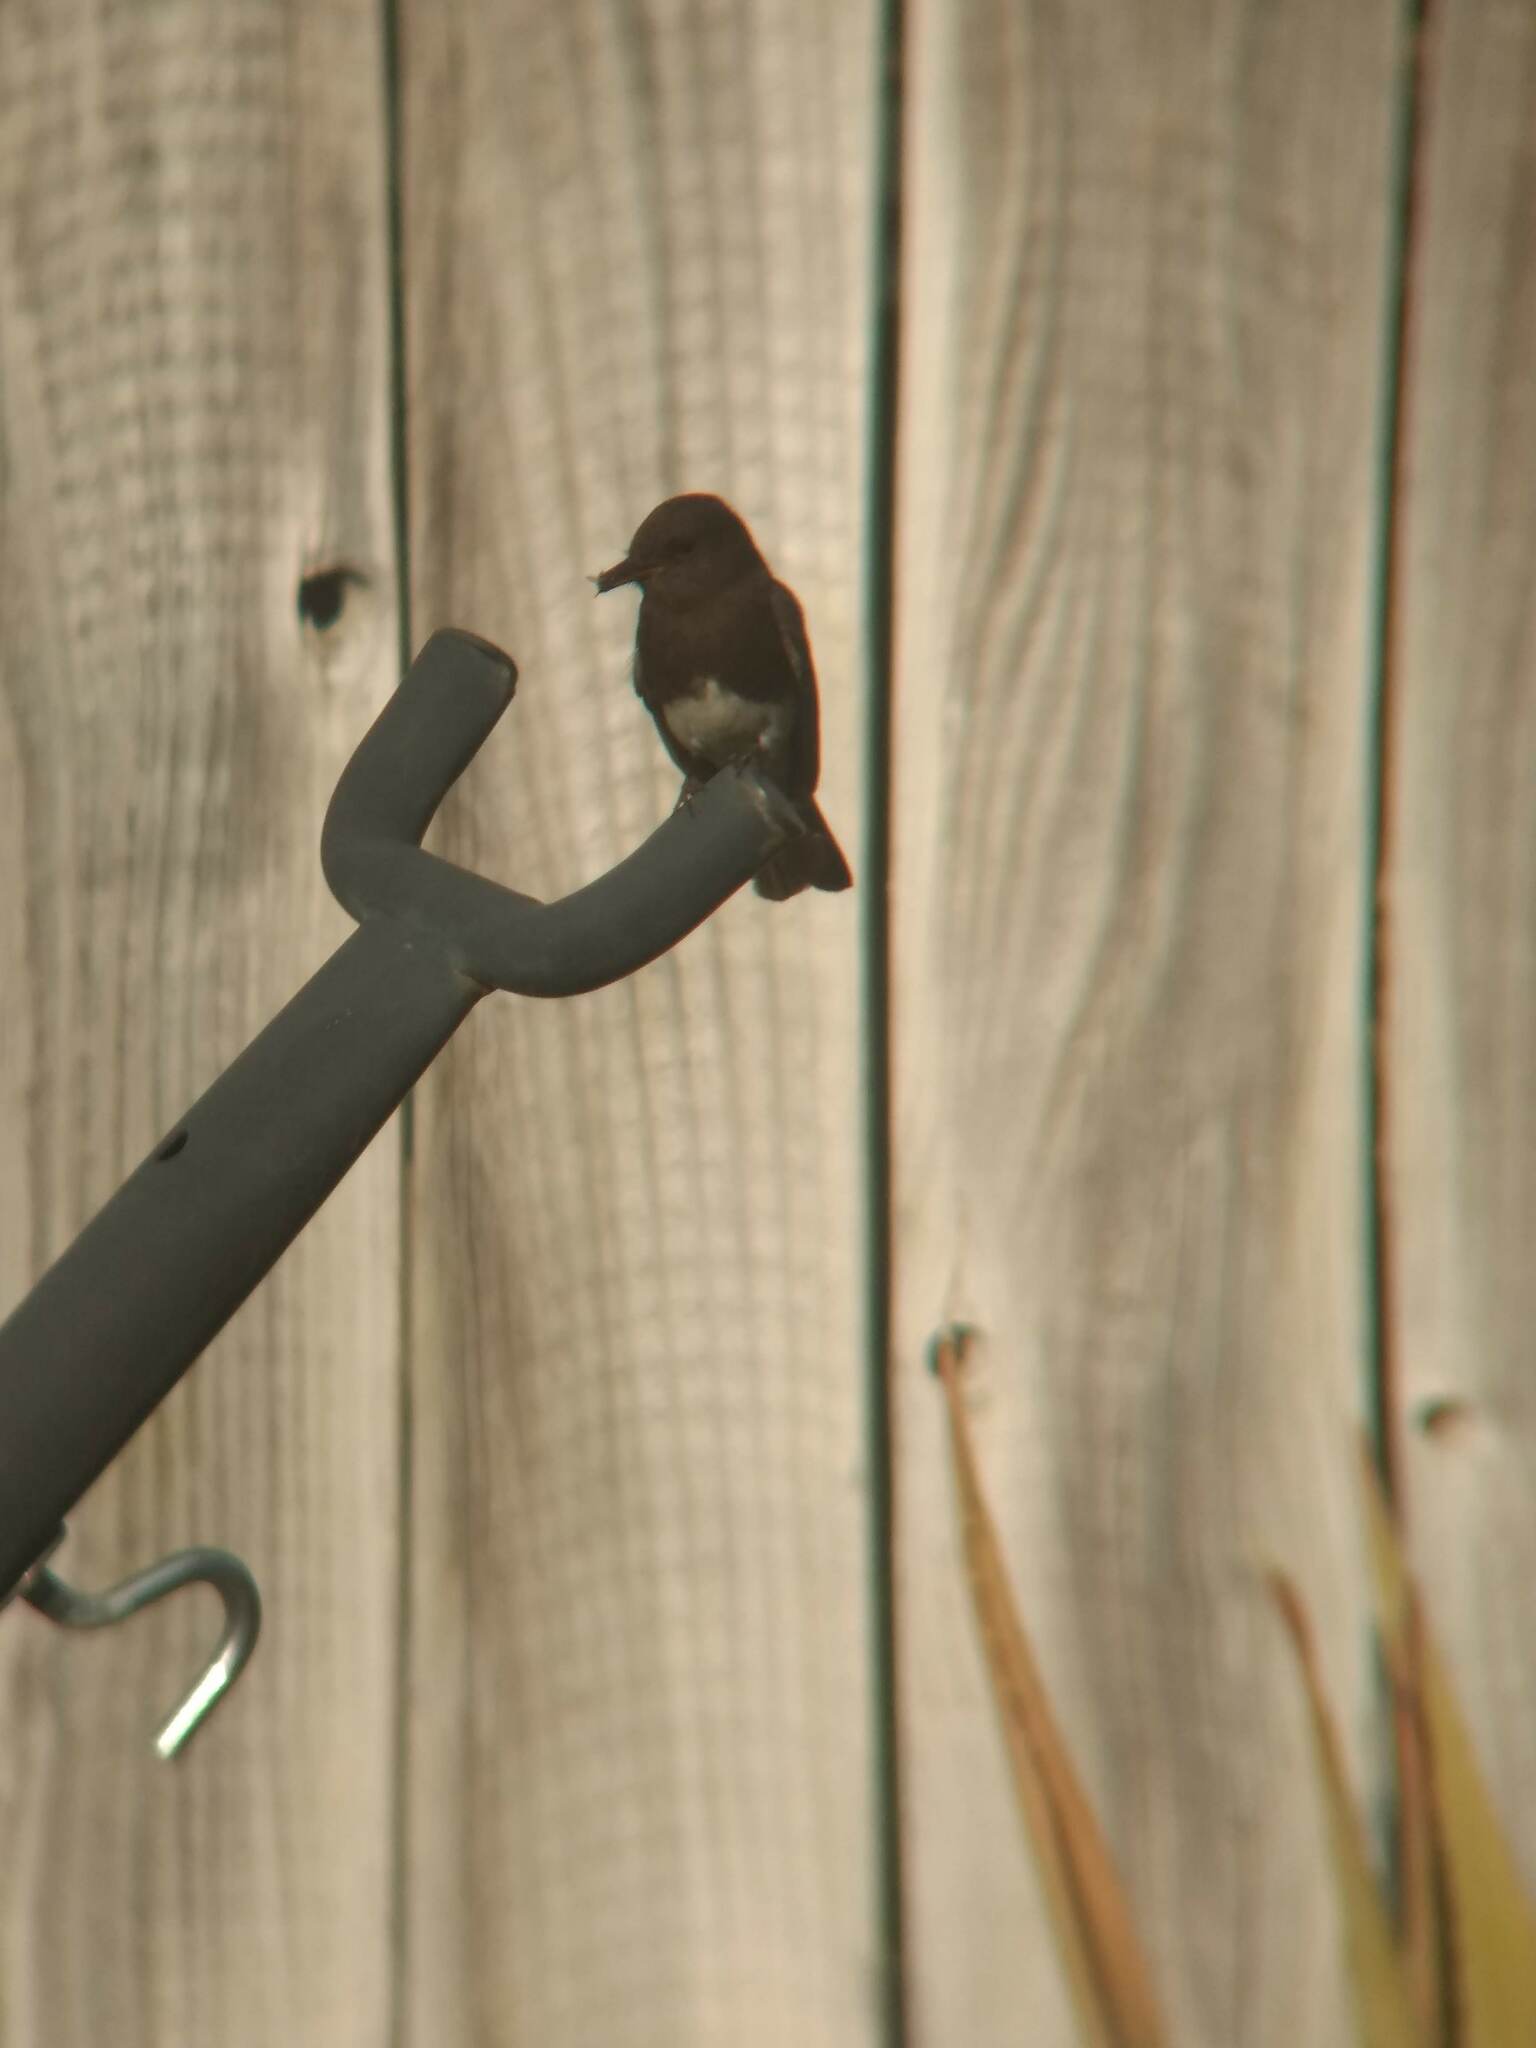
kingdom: Animalia
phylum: Chordata
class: Aves
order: Passeriformes
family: Tyrannidae
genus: Sayornis
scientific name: Sayornis nigricans
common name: Black phoebe
